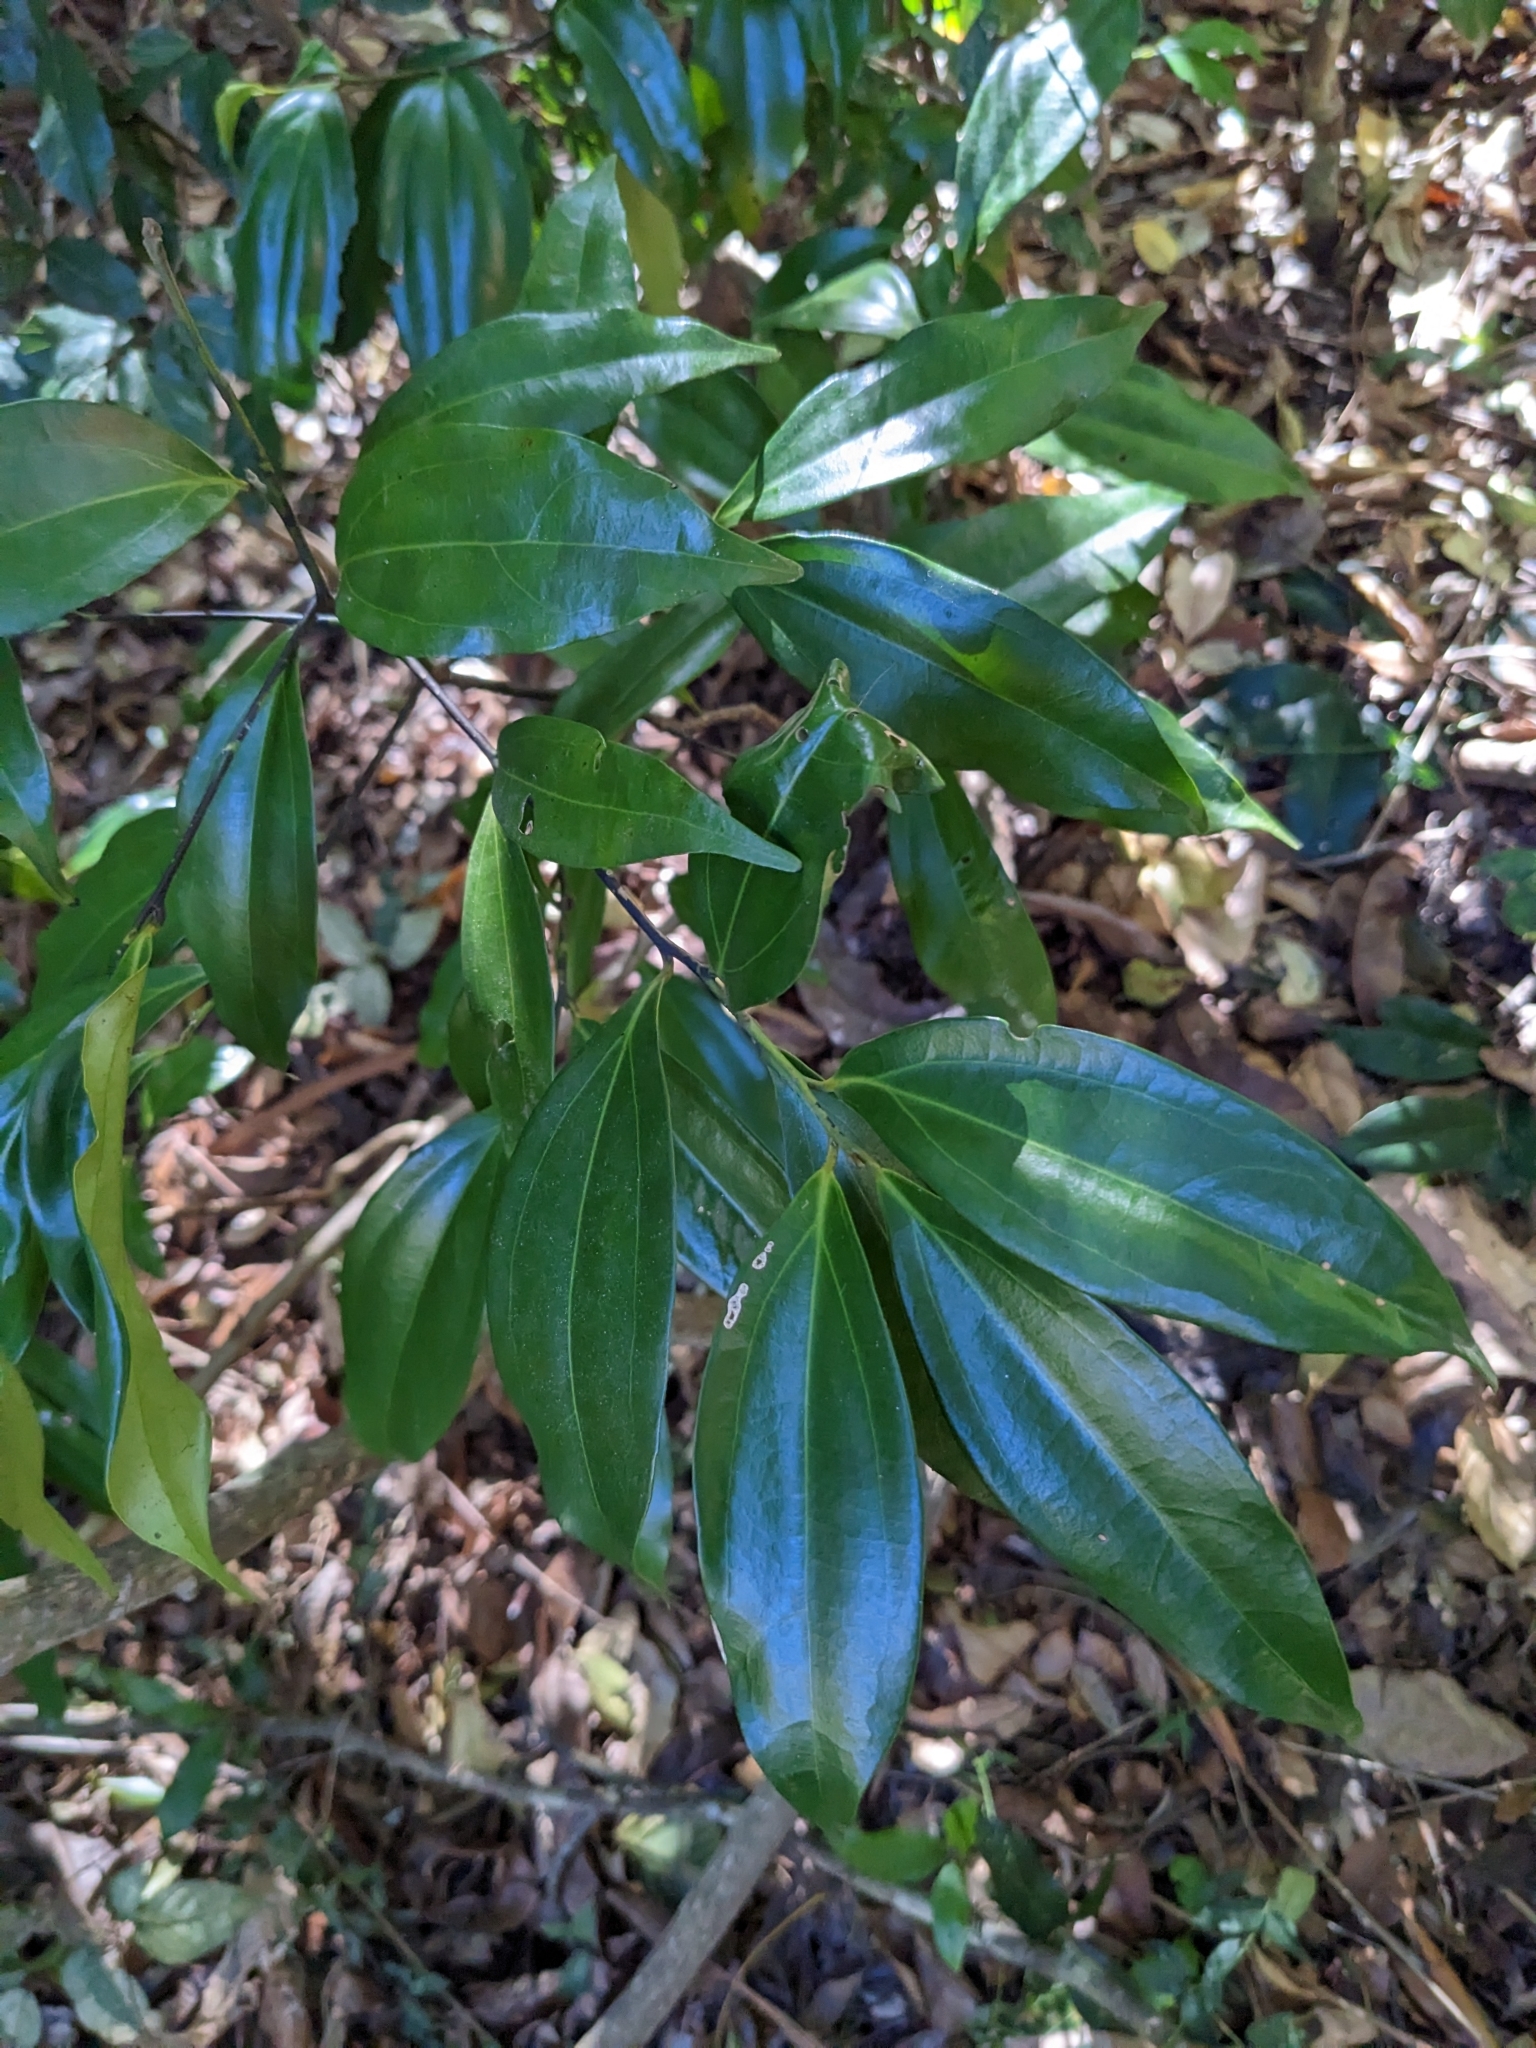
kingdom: Plantae
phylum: Tracheophyta
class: Magnoliopsida
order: Laurales
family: Lauraceae
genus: Cryptocarya
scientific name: Cryptocarya laevigata
